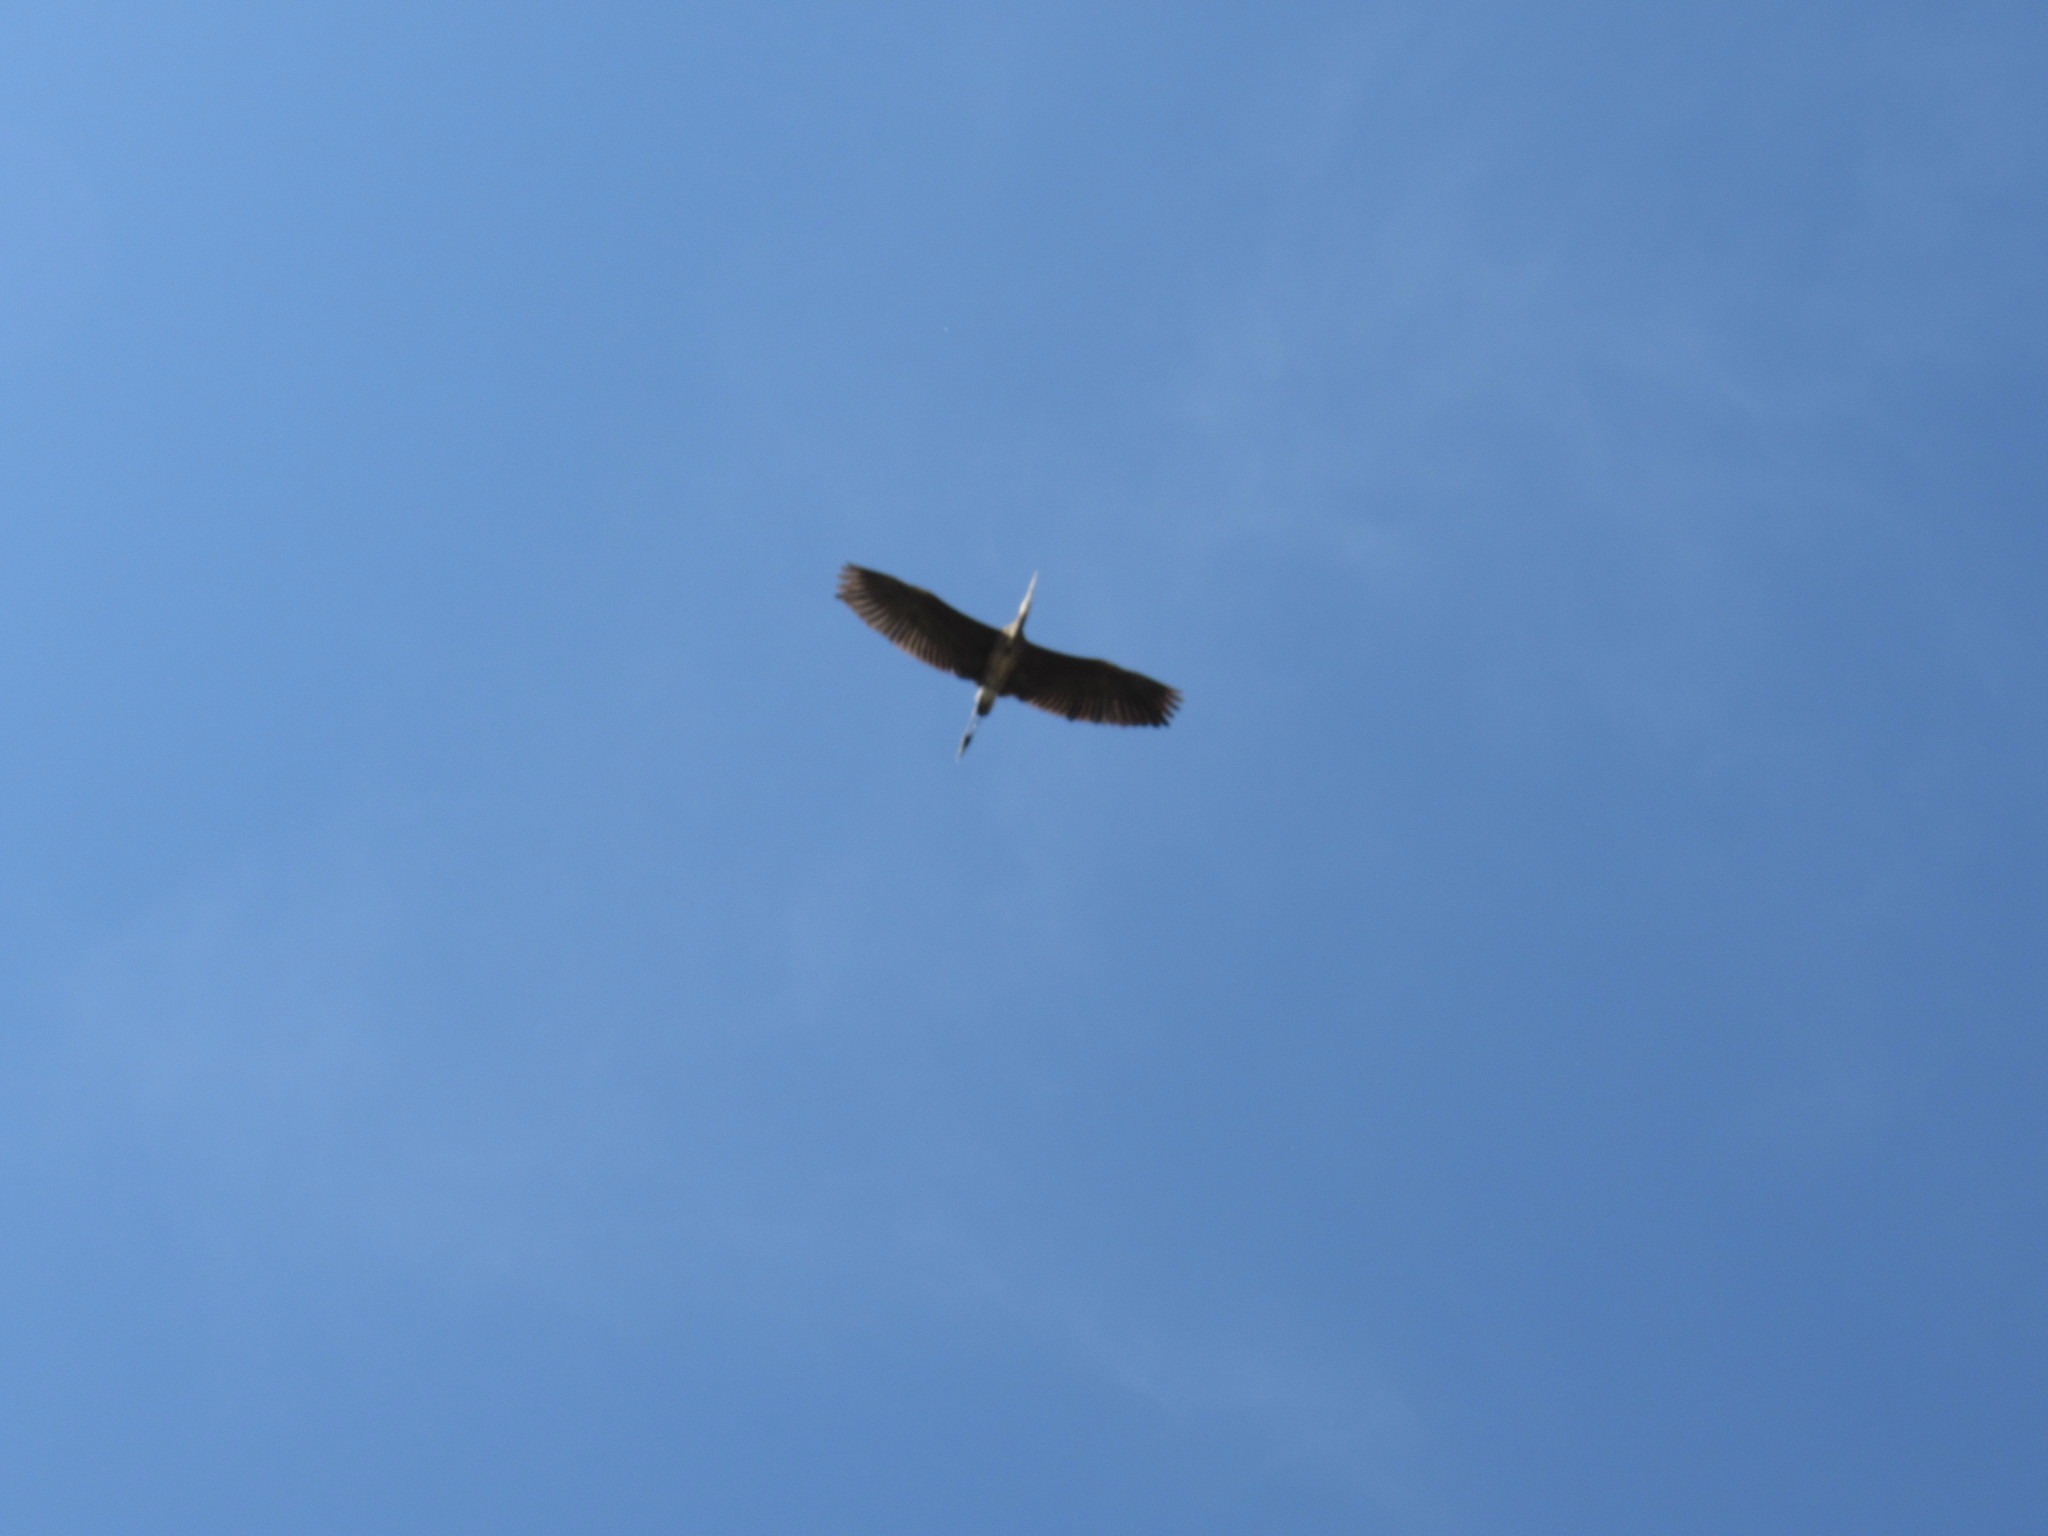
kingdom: Animalia
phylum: Chordata
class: Aves
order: Pelecaniformes
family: Ardeidae
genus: Ardea
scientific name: Ardea herodias
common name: Great blue heron
